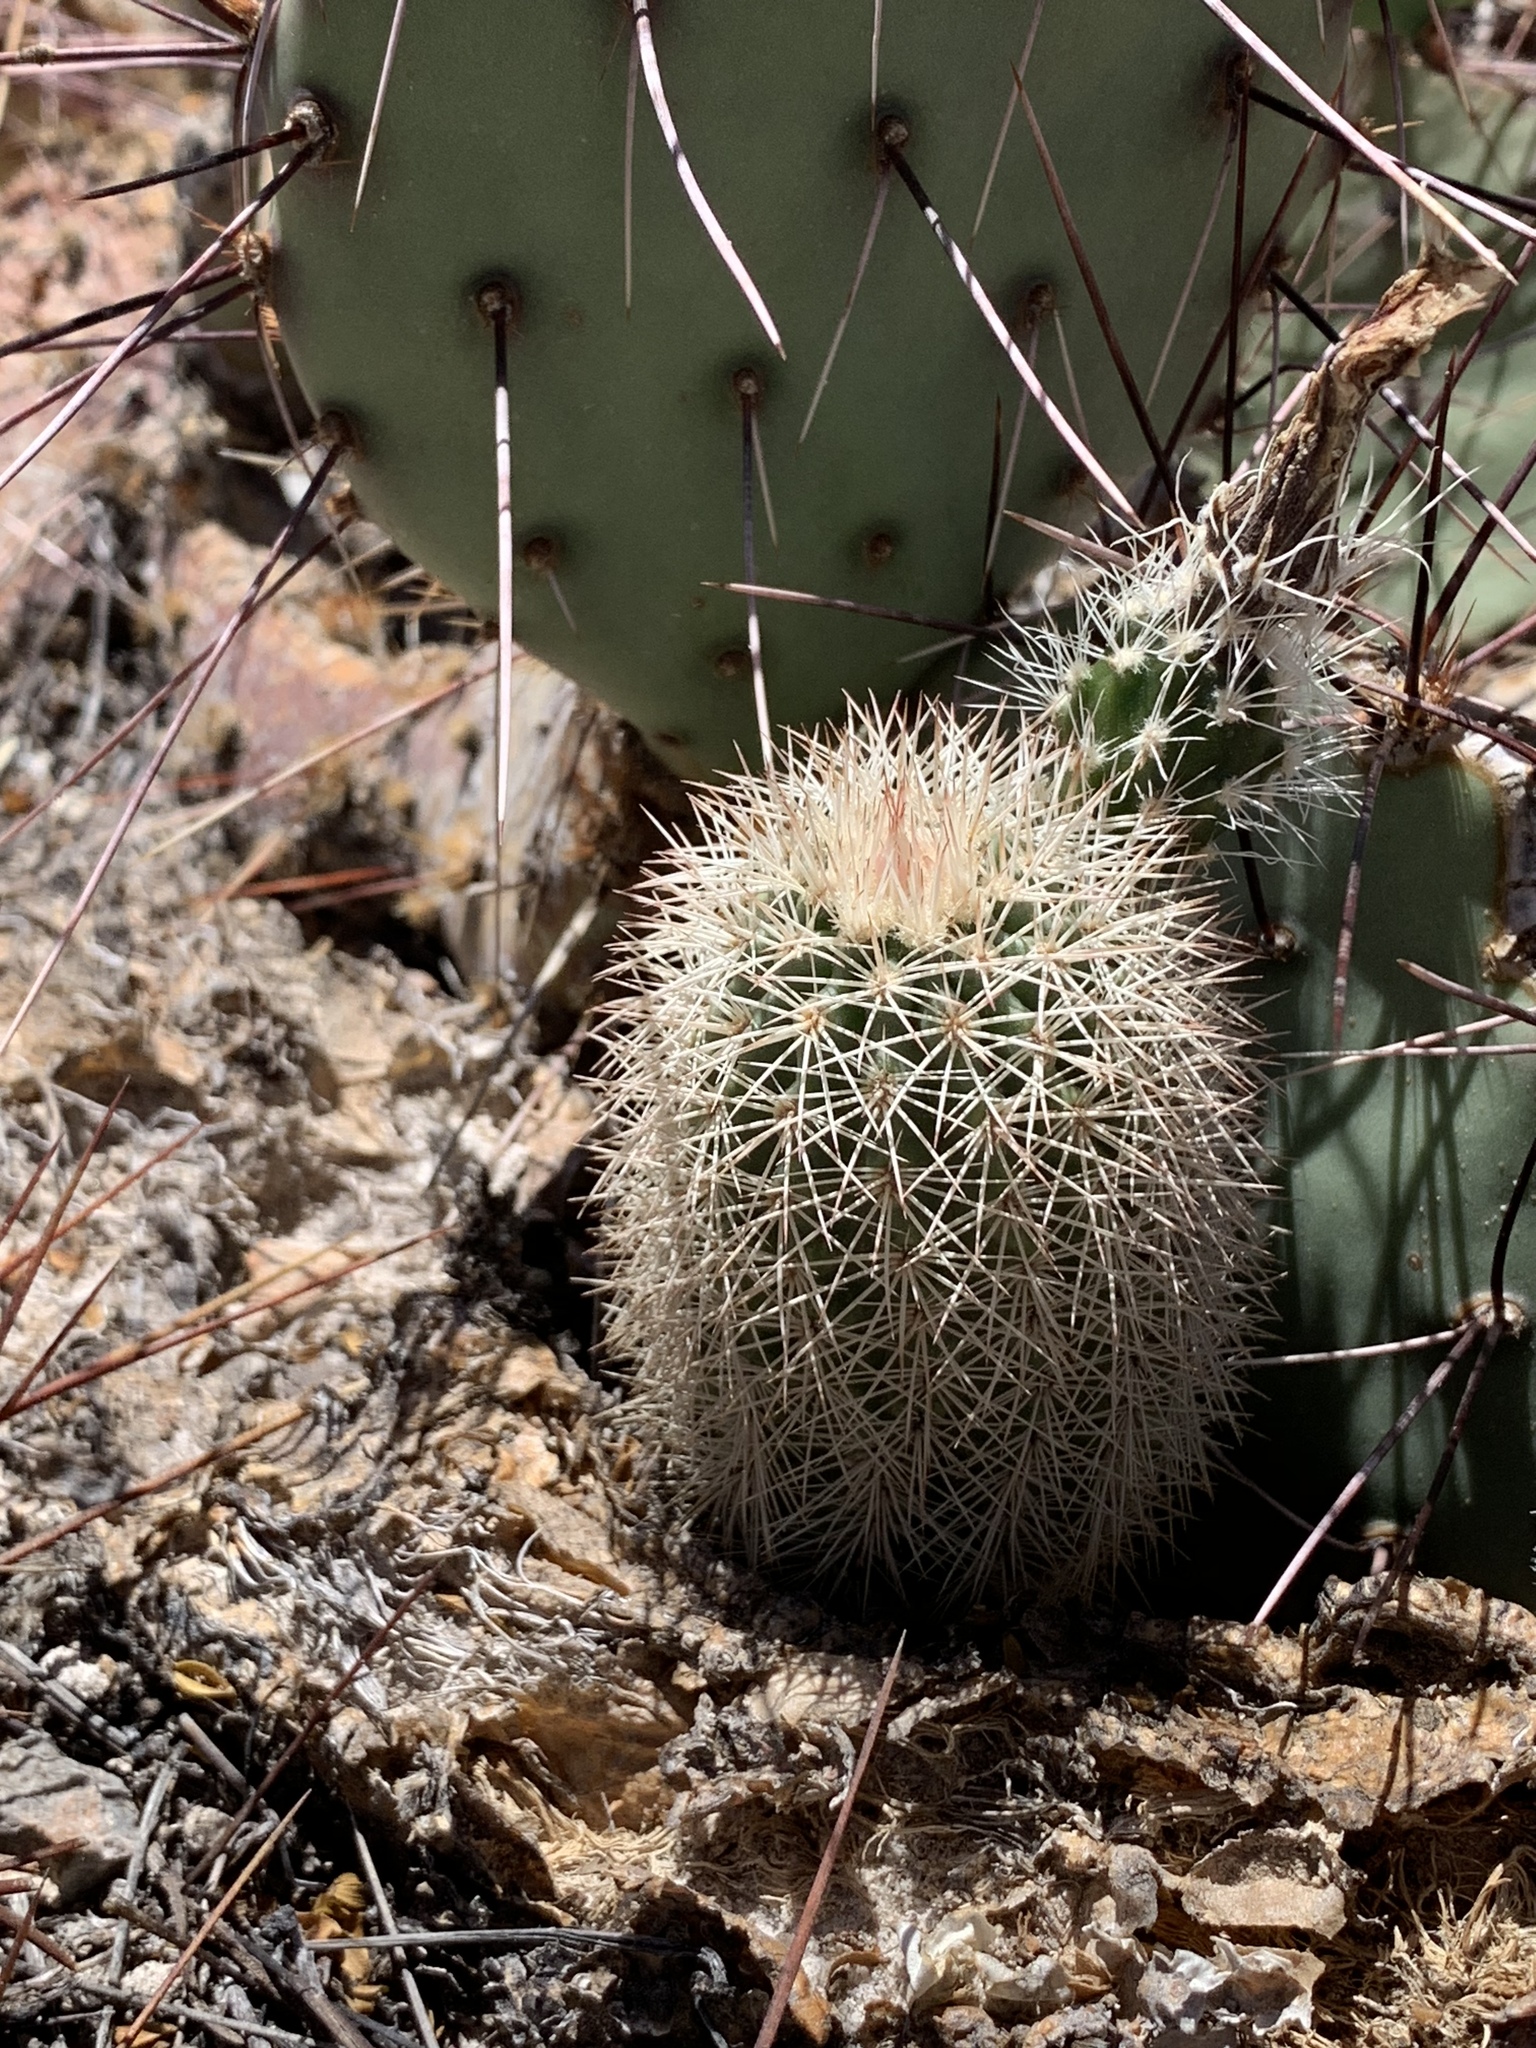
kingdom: Plantae
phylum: Tracheophyta
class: Magnoliopsida
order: Caryophyllales
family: Cactaceae
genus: Echinocereus
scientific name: Echinocereus dasyacanthus
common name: Spiny hedgehog cactus
